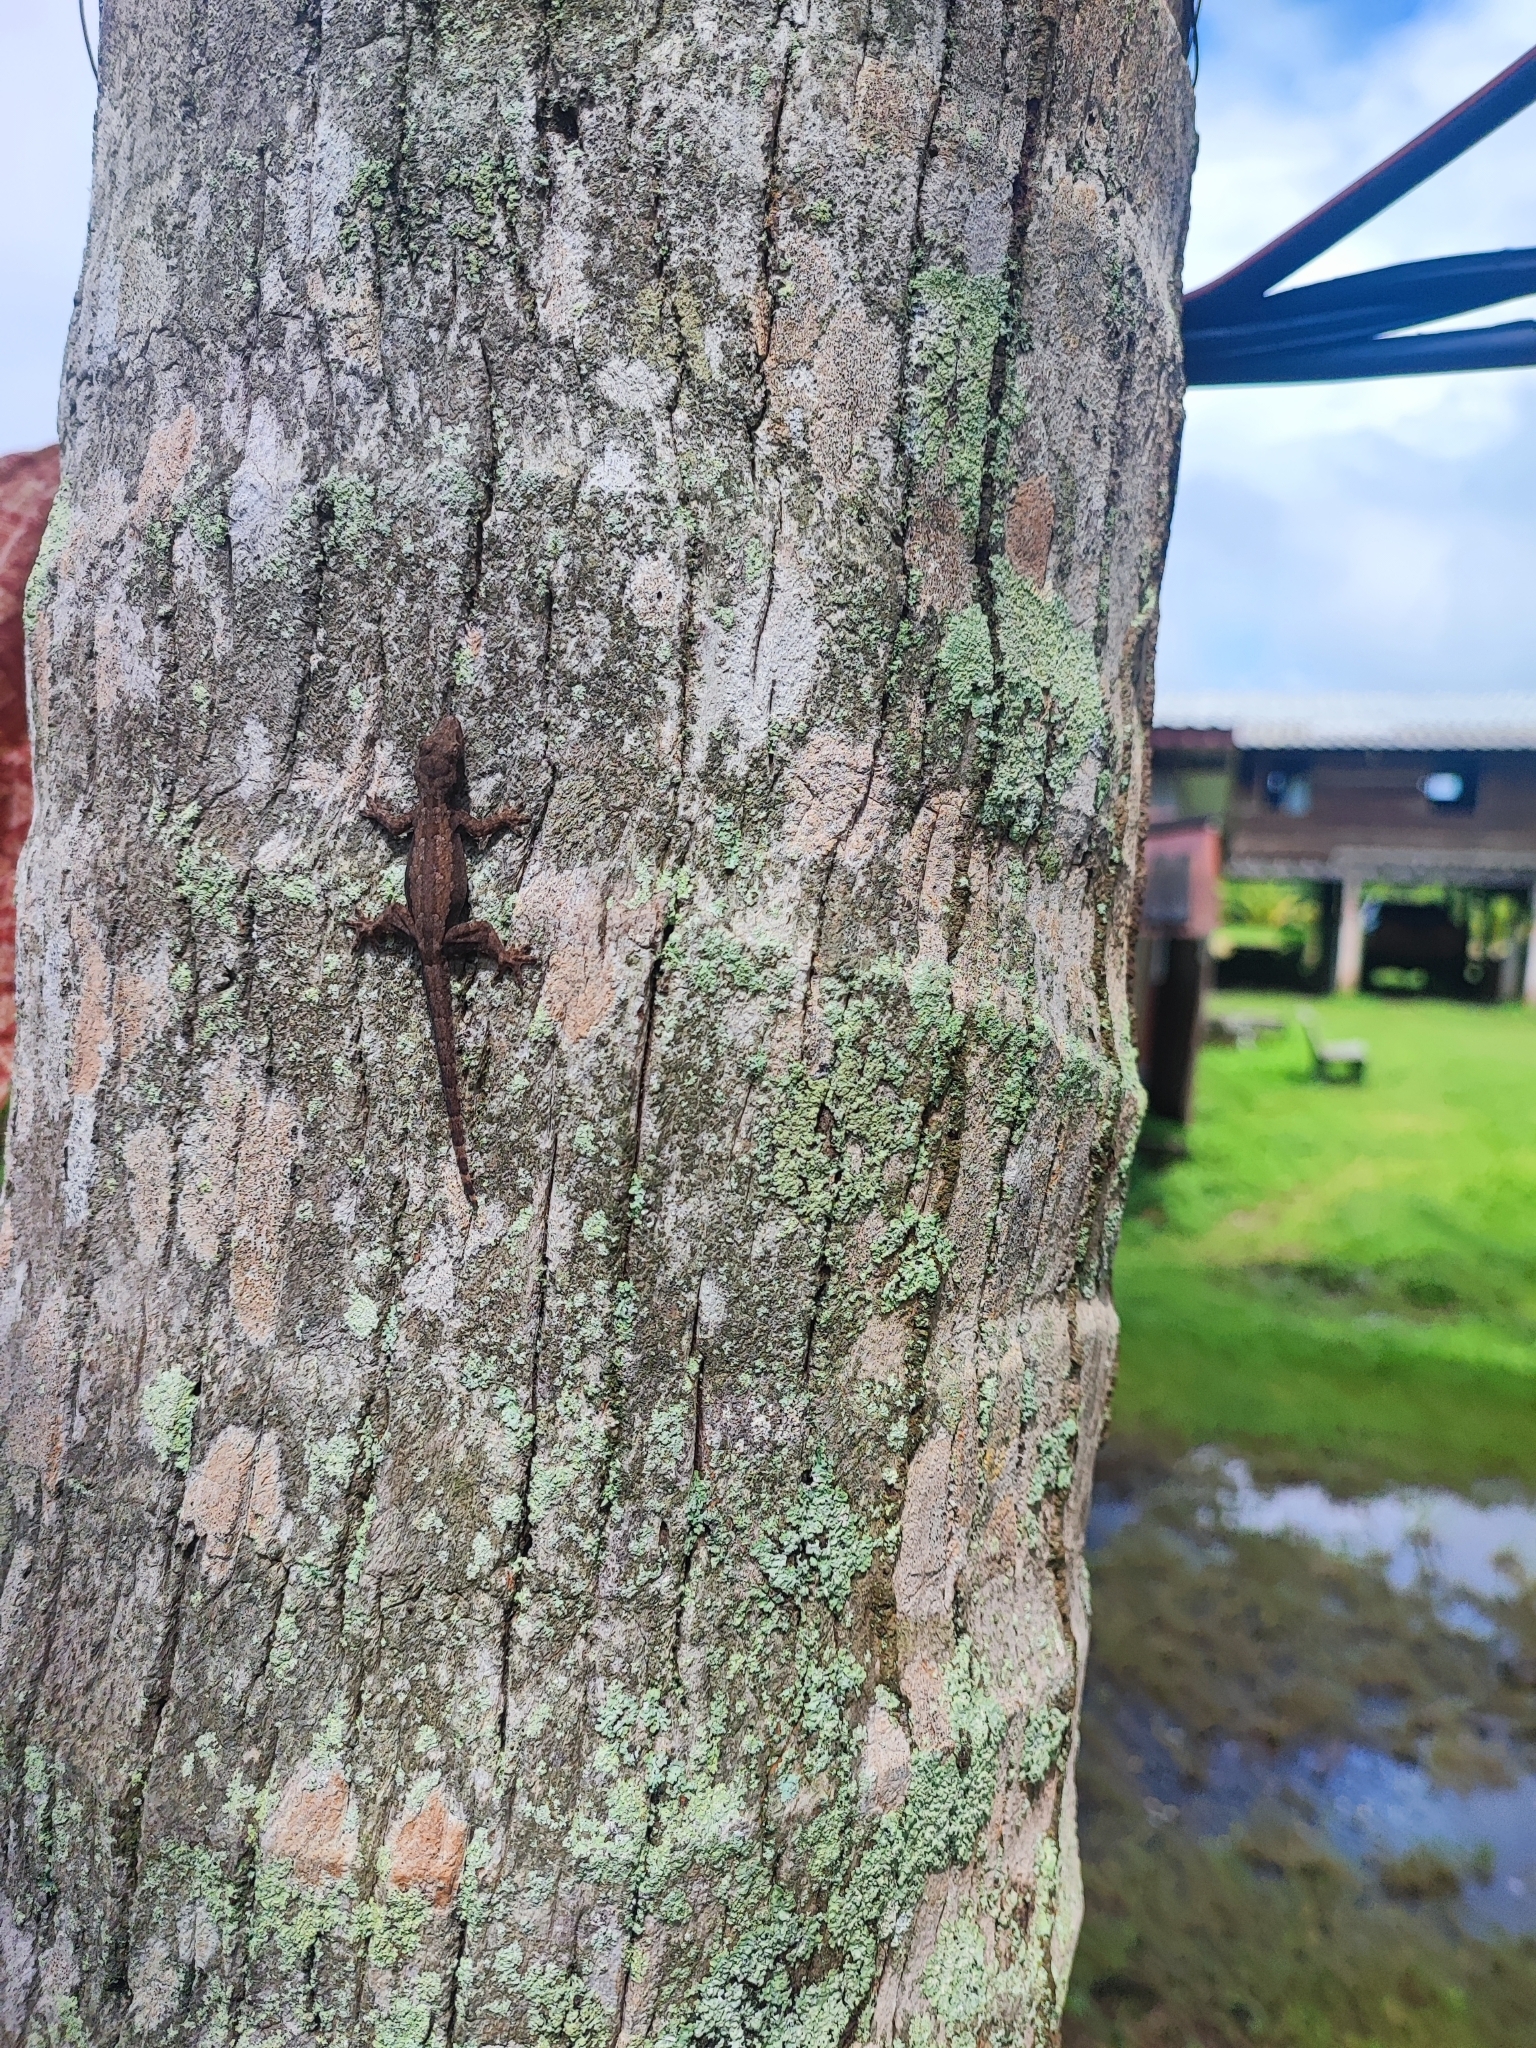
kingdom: Animalia
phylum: Chordata
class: Squamata
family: Gekkonidae
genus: Hemidactylus
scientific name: Hemidactylus platyurus
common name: Flat-tailed house gecko
